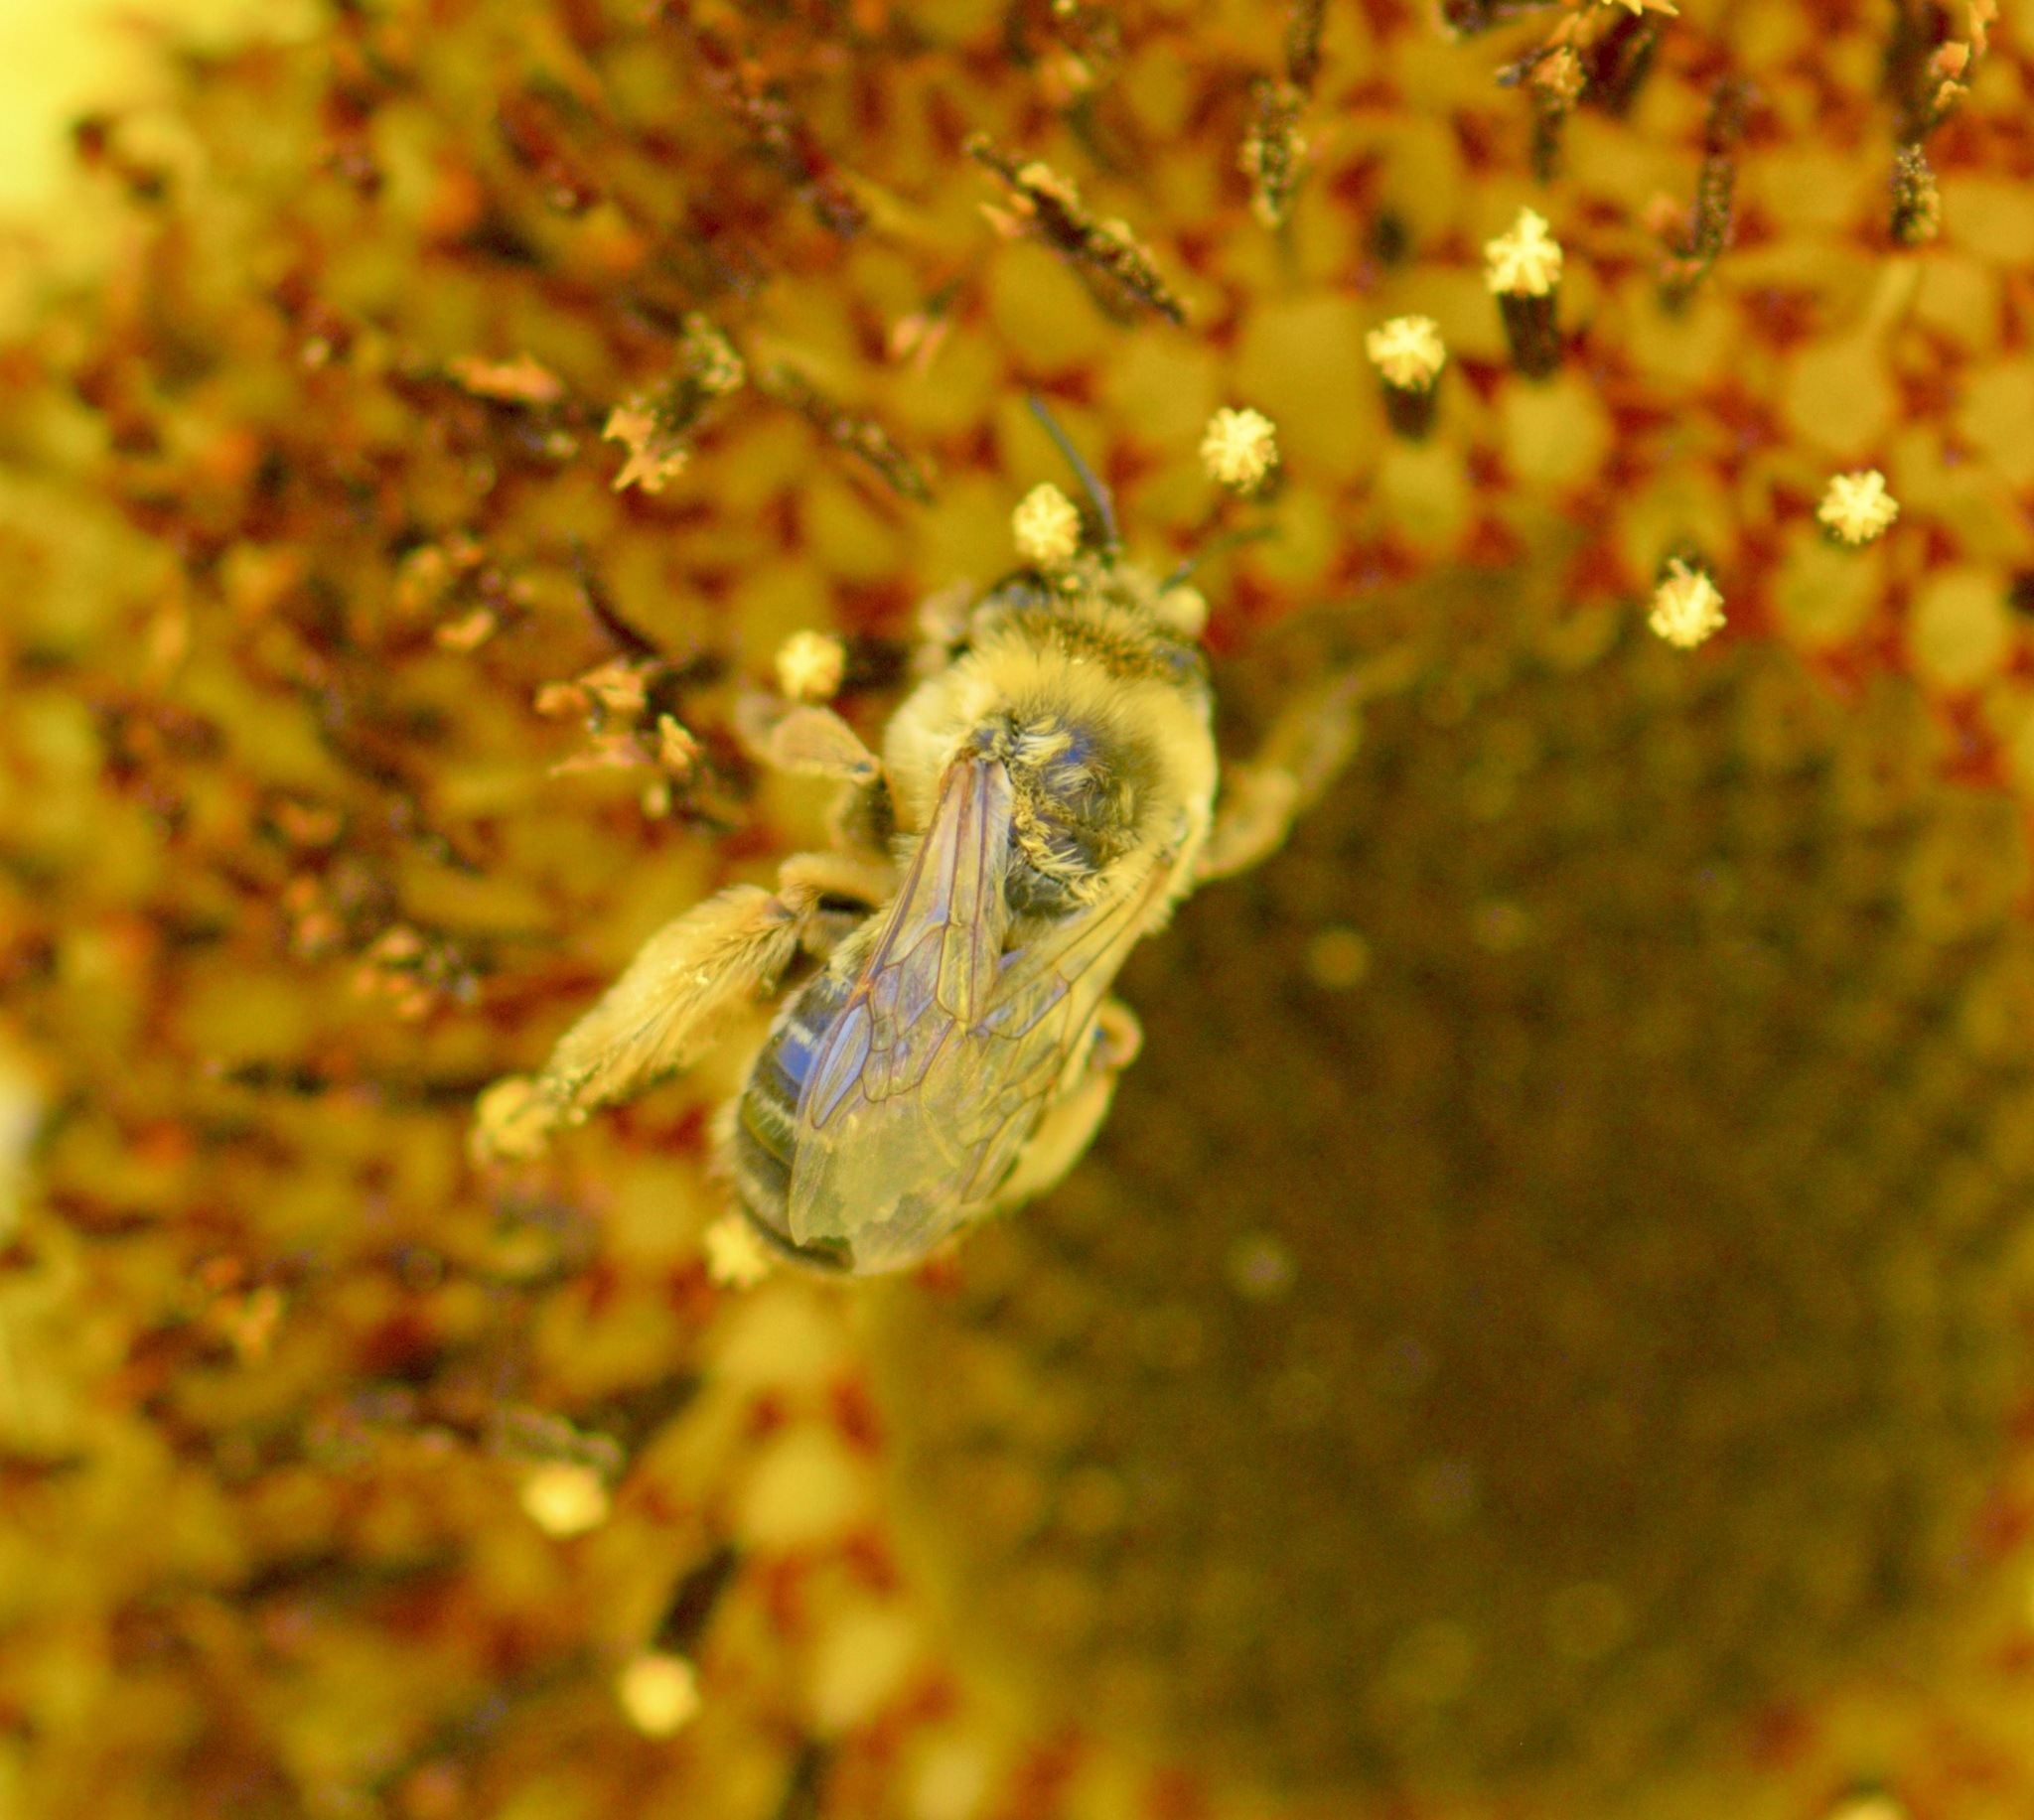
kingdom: Animalia
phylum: Arthropoda
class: Insecta
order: Hymenoptera
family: Apidae
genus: Melissodes
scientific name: Melissodes trinodis
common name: Dark-veined longhorn
